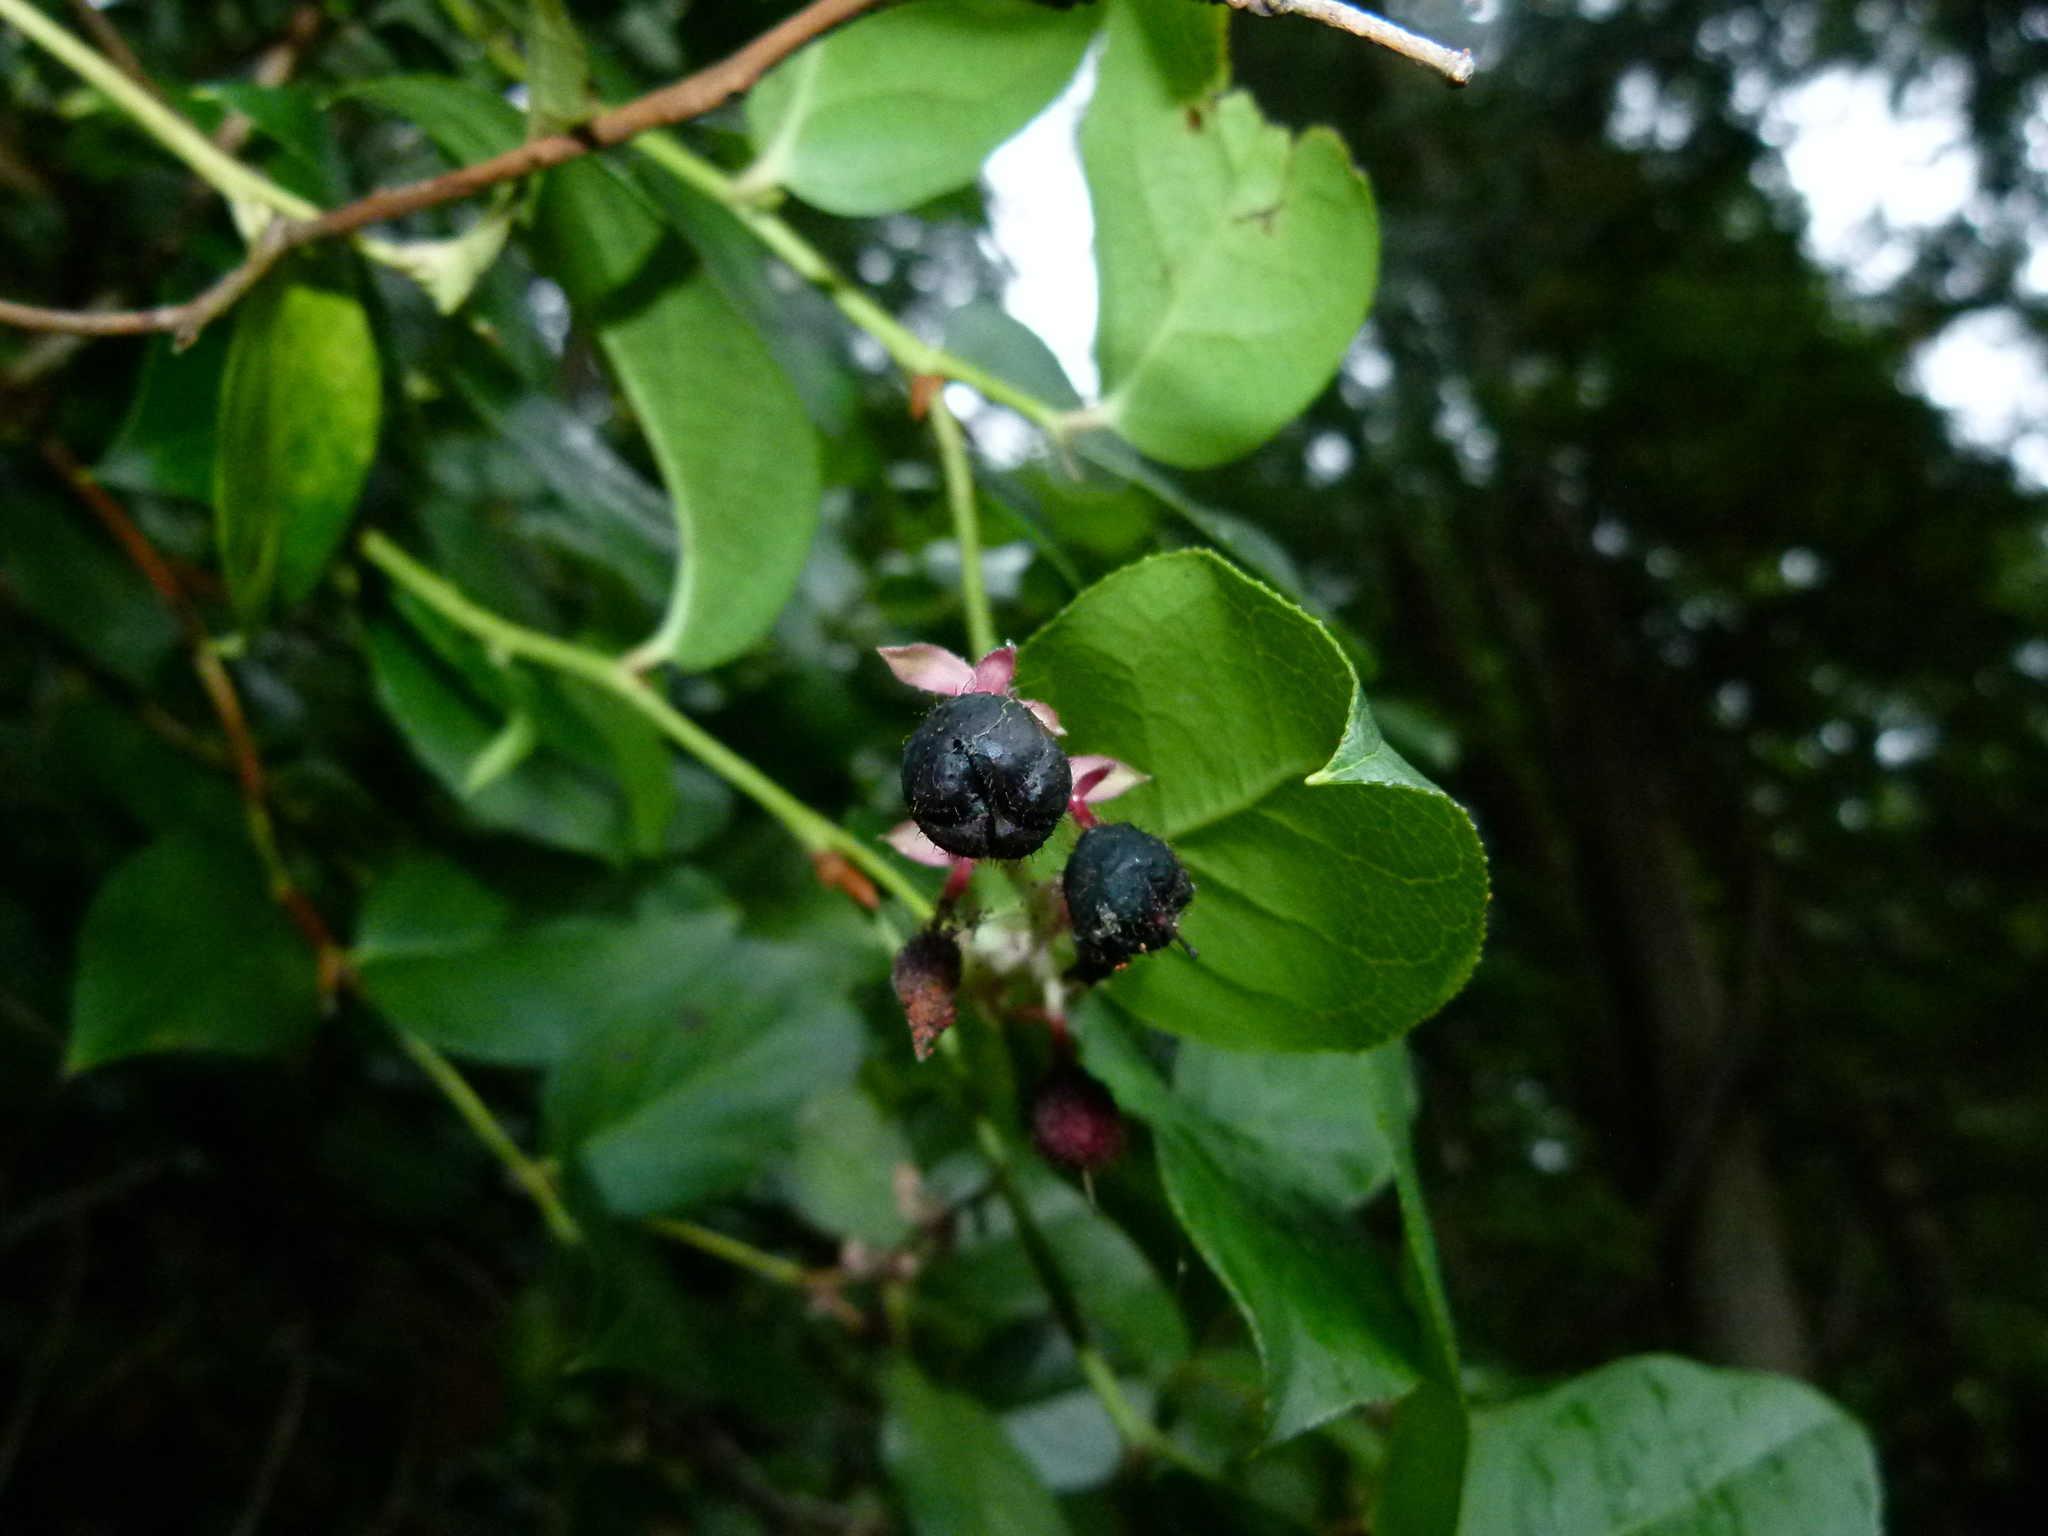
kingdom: Plantae
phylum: Tracheophyta
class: Magnoliopsida
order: Ericales
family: Ericaceae
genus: Gaultheria
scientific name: Gaultheria shallon
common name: Shallon
